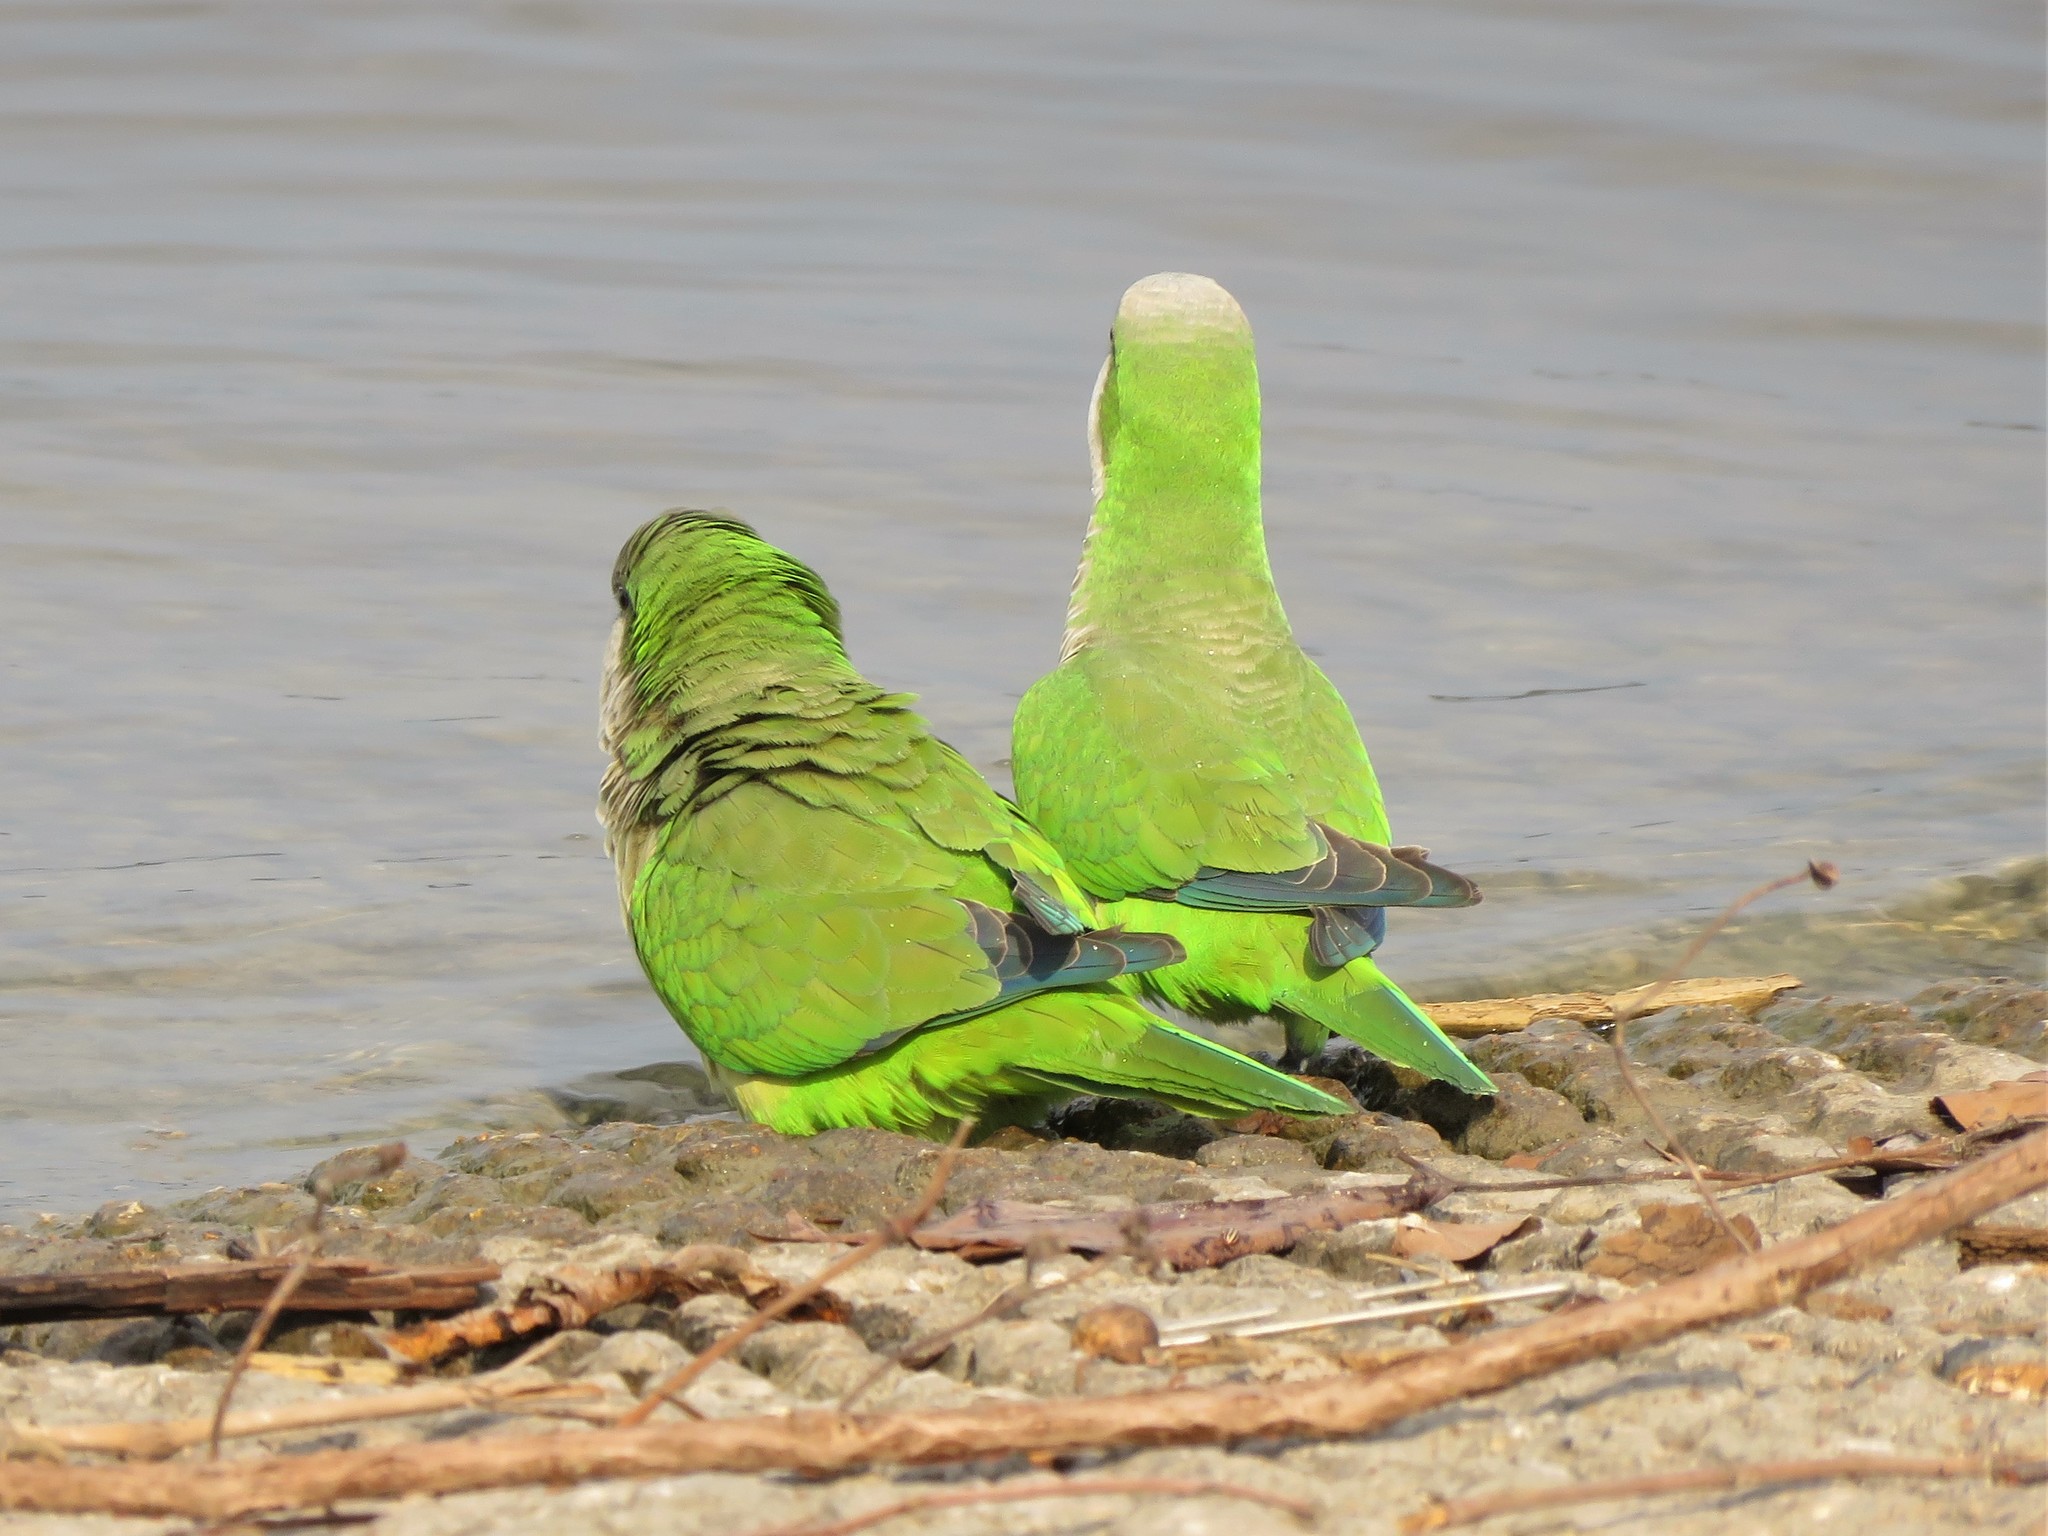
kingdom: Animalia
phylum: Chordata
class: Aves
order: Psittaciformes
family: Psittacidae
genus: Myiopsitta
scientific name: Myiopsitta monachus
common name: Monk parakeet
